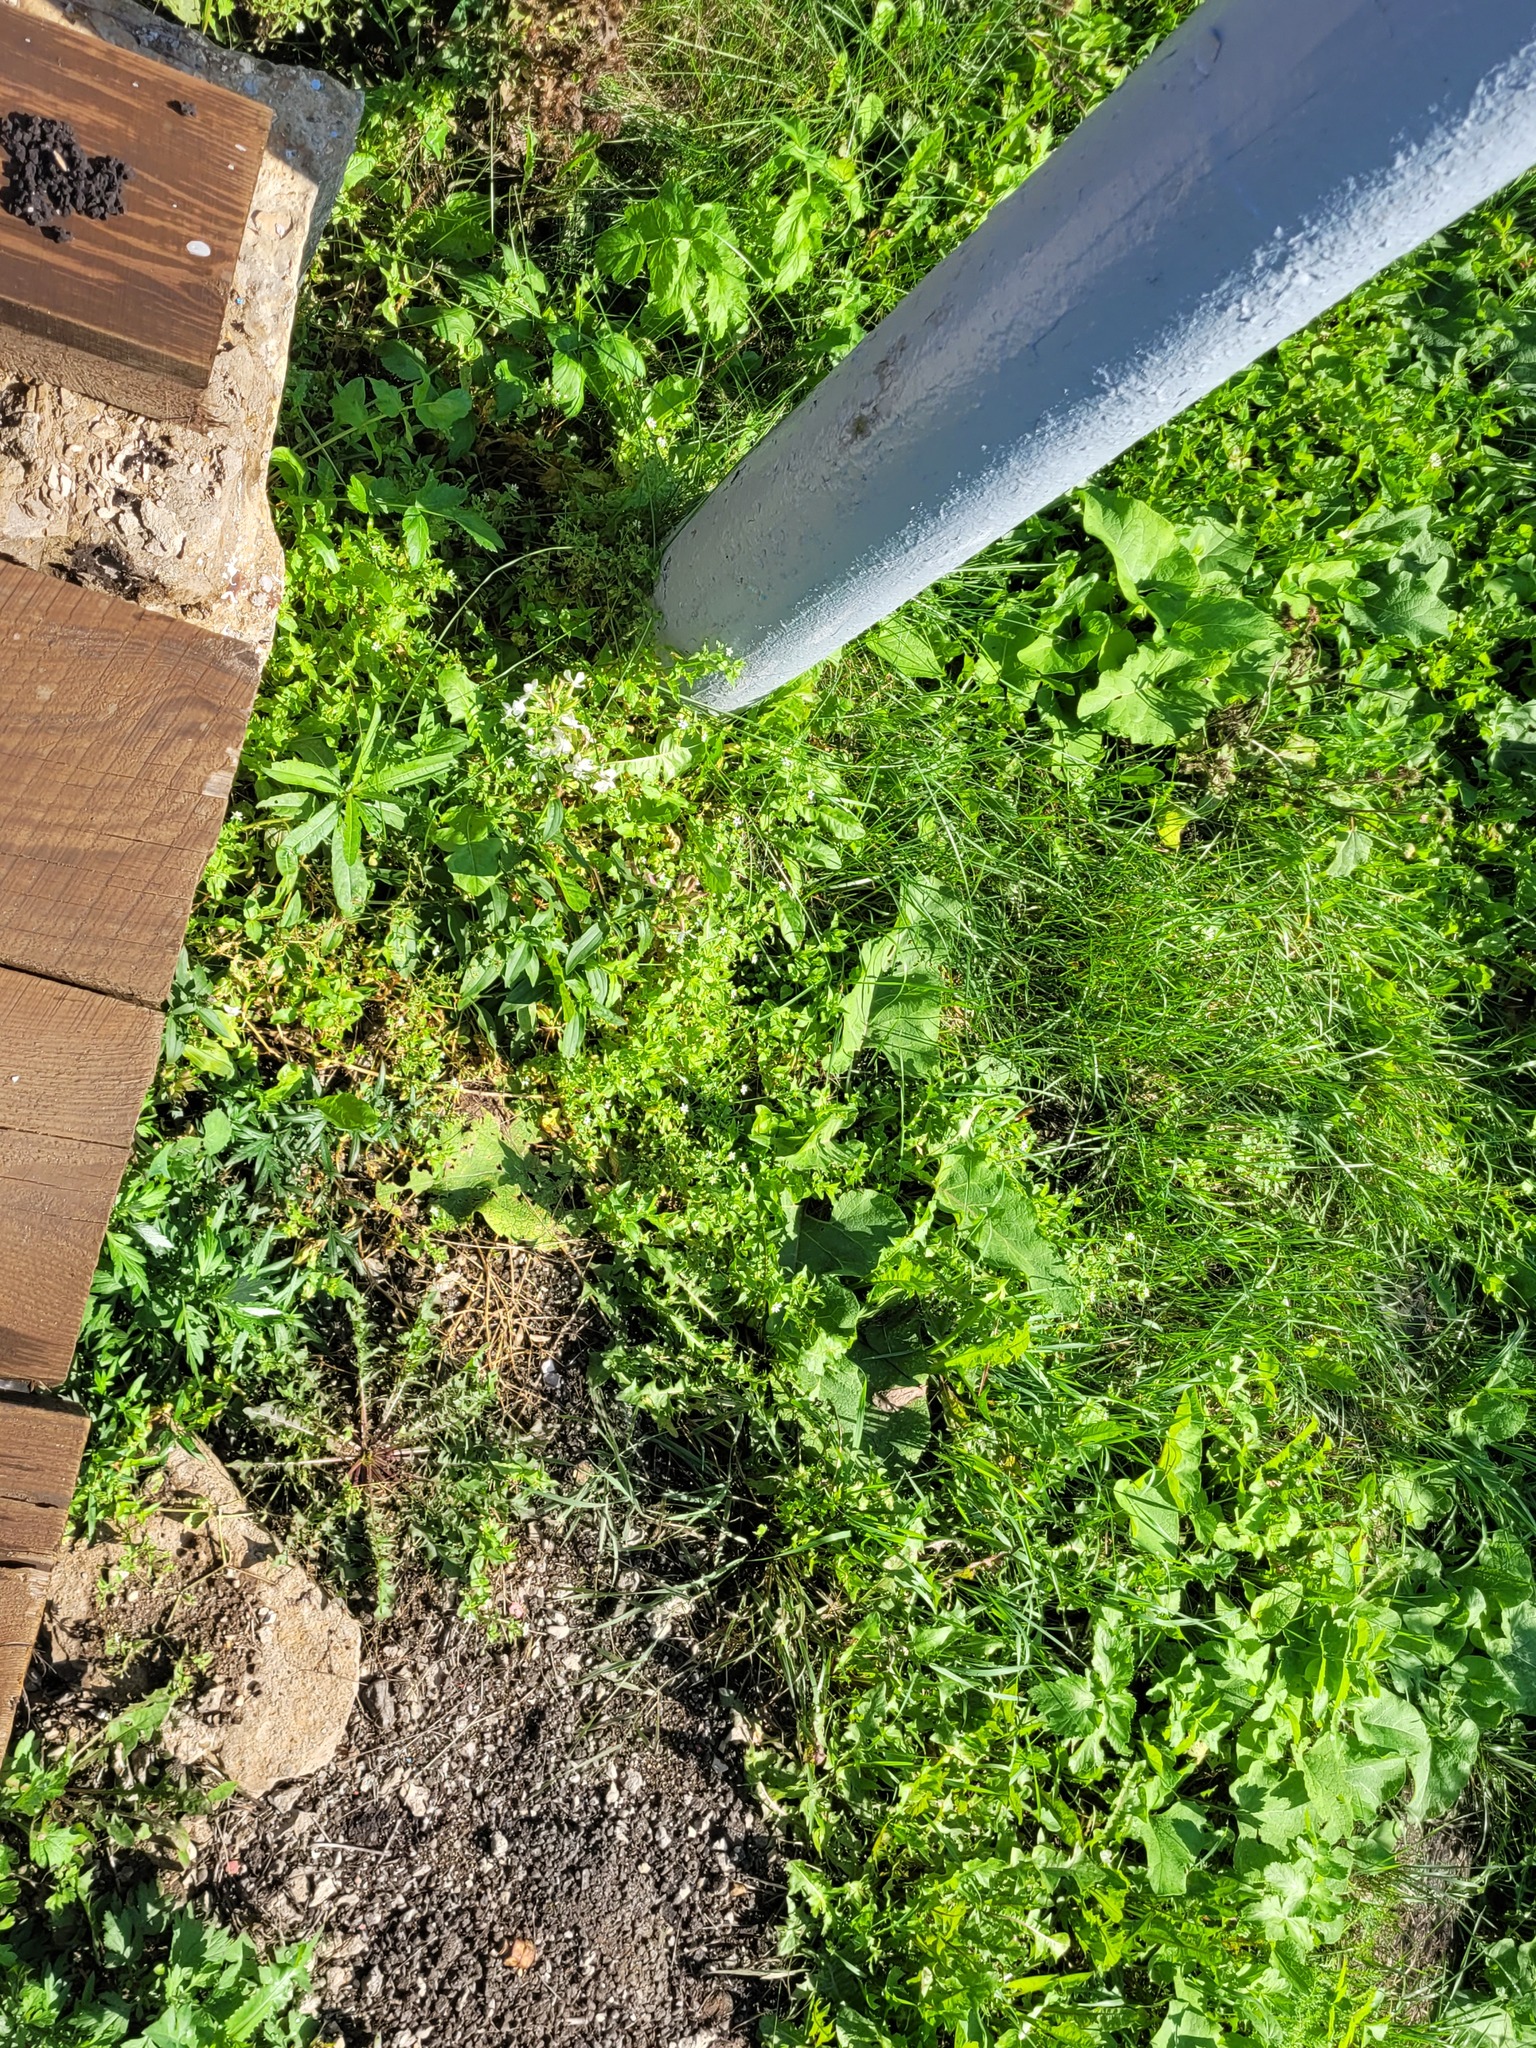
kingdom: Plantae
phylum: Tracheophyta
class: Magnoliopsida
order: Caryophyllales
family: Caryophyllaceae
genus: Stellaria
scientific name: Stellaria aquatica
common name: Water chickweed
